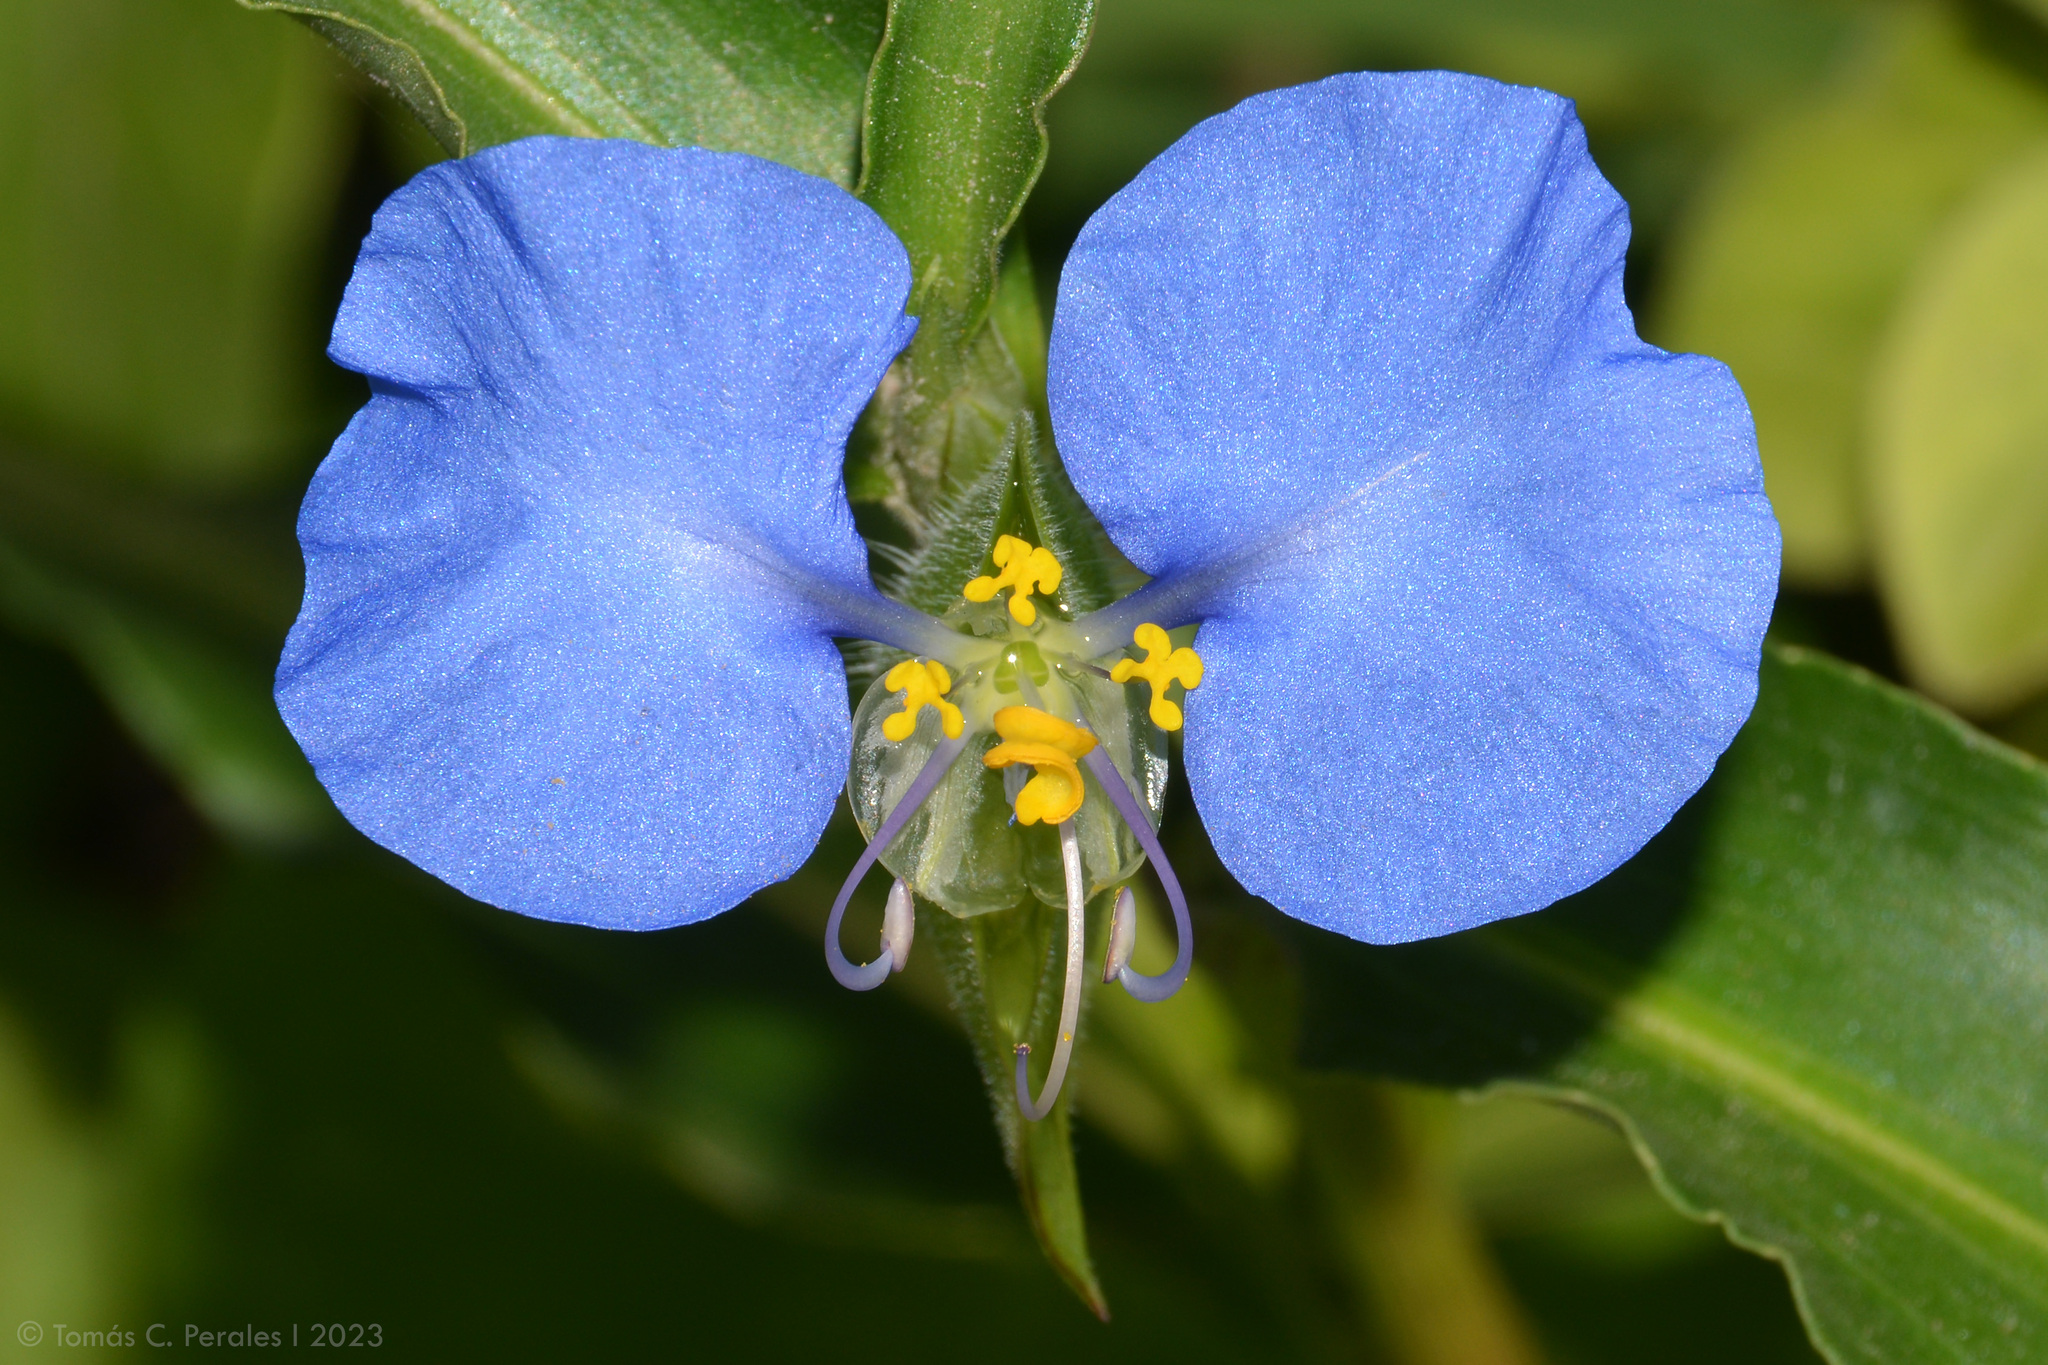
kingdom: Plantae
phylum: Tracheophyta
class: Liliopsida
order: Commelinales
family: Commelinaceae
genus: Commelina
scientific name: Commelina erecta
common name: Blousel blommetjie
